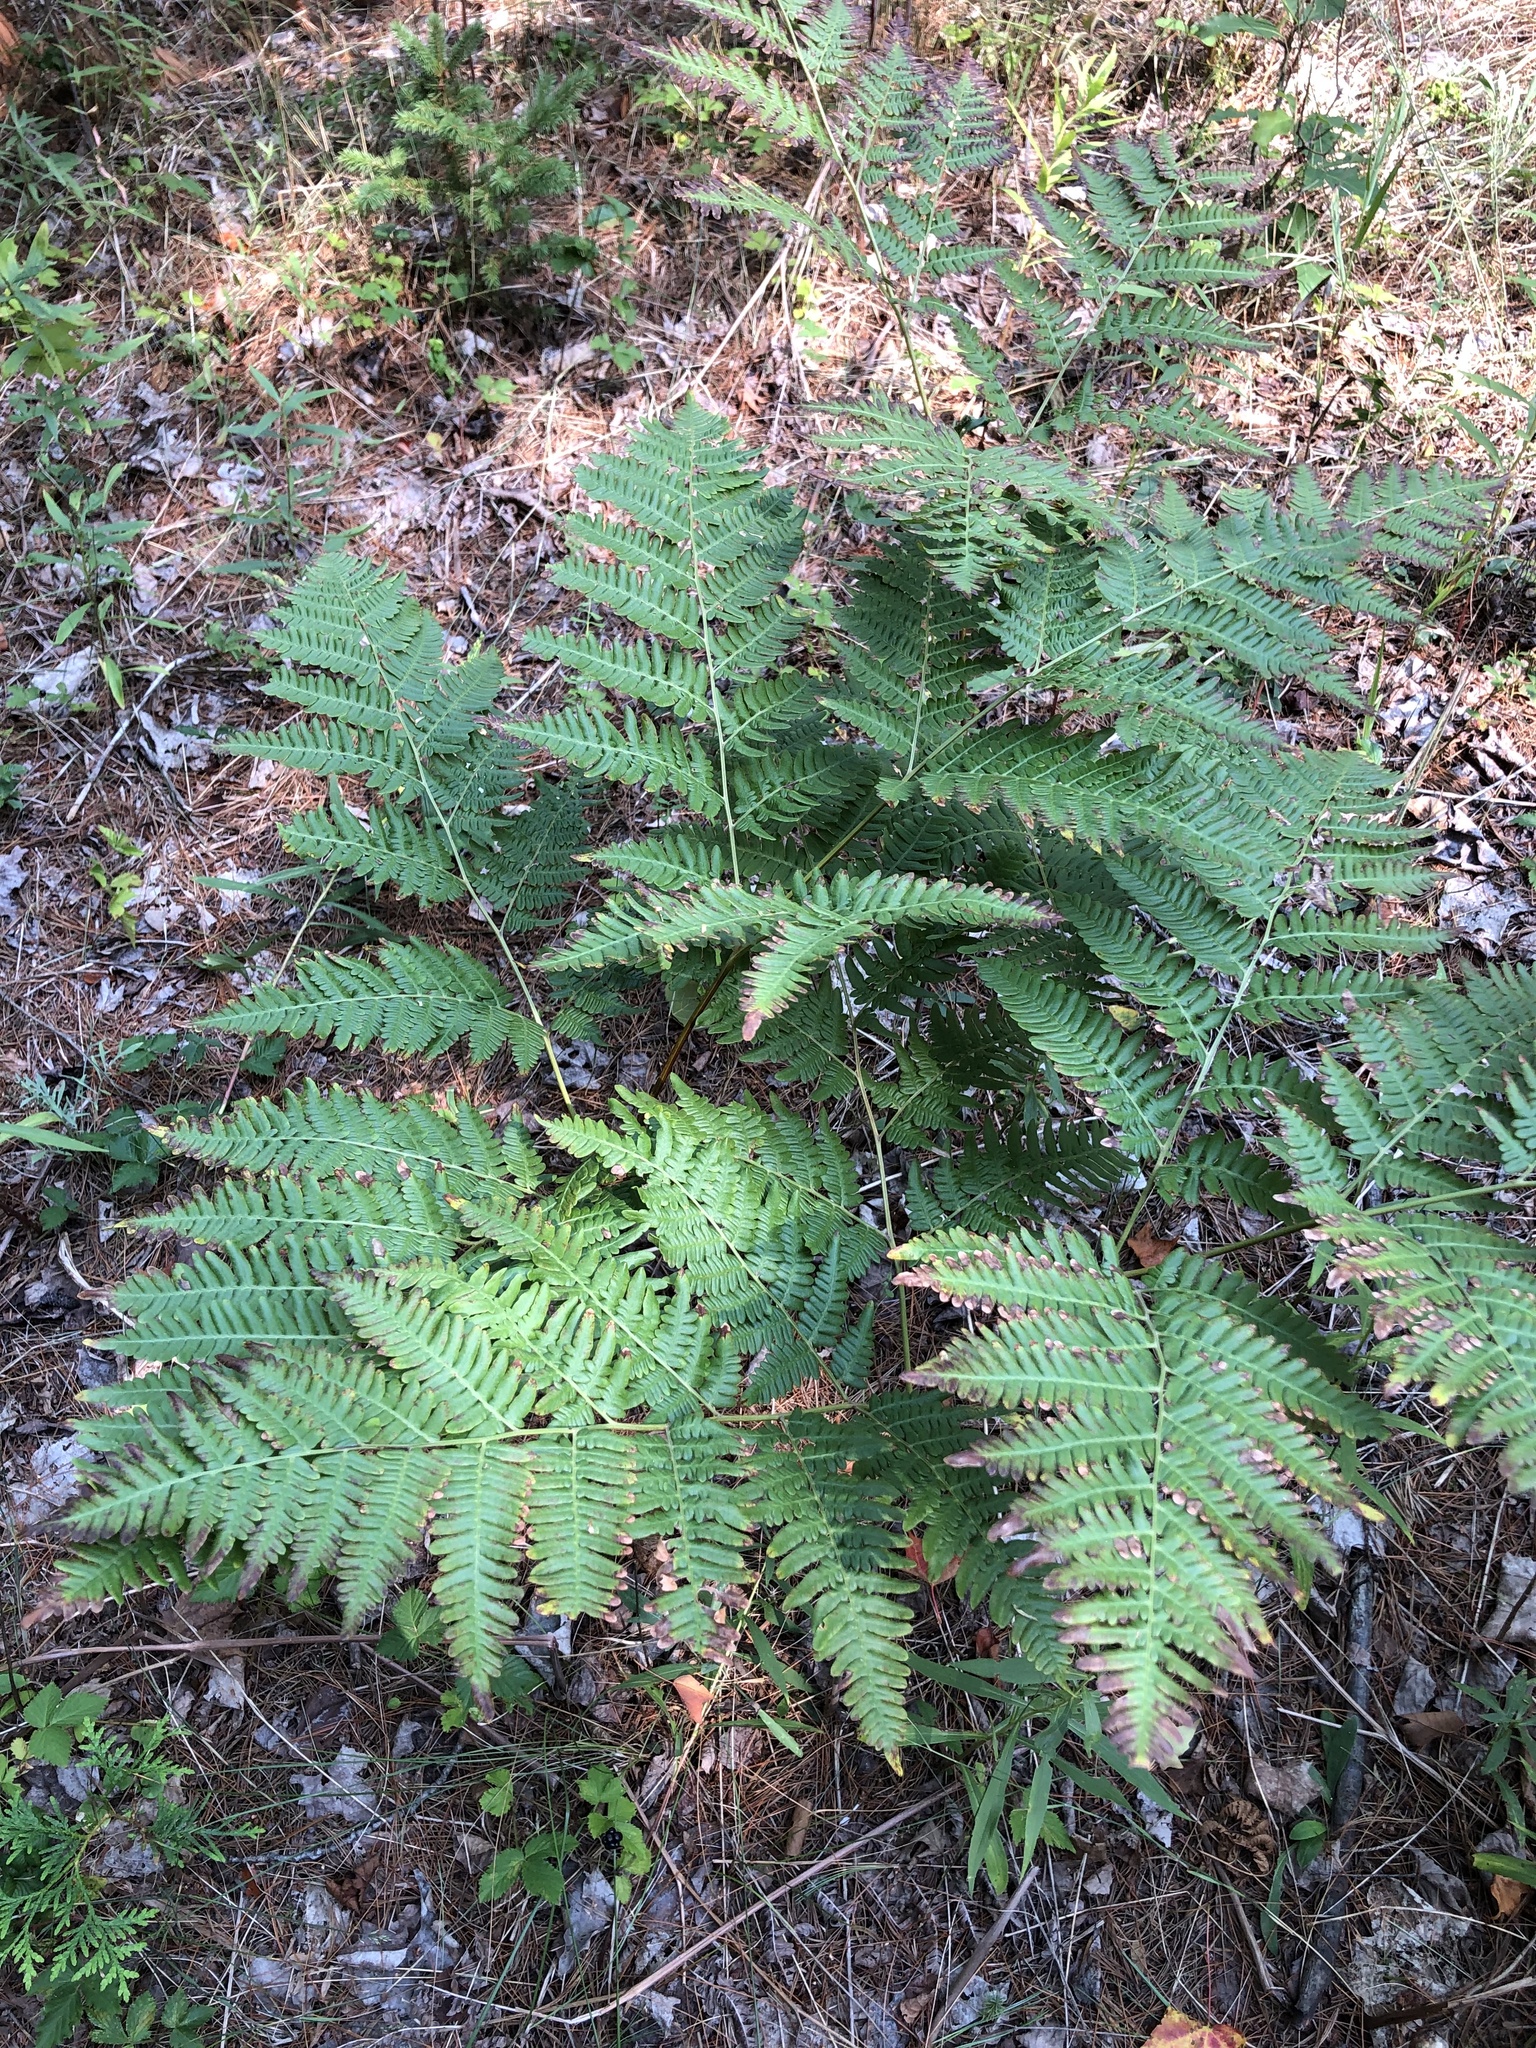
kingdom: Plantae
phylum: Tracheophyta
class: Polypodiopsida
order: Polypodiales
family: Dennstaedtiaceae
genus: Pteridium
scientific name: Pteridium aquilinum
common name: Bracken
